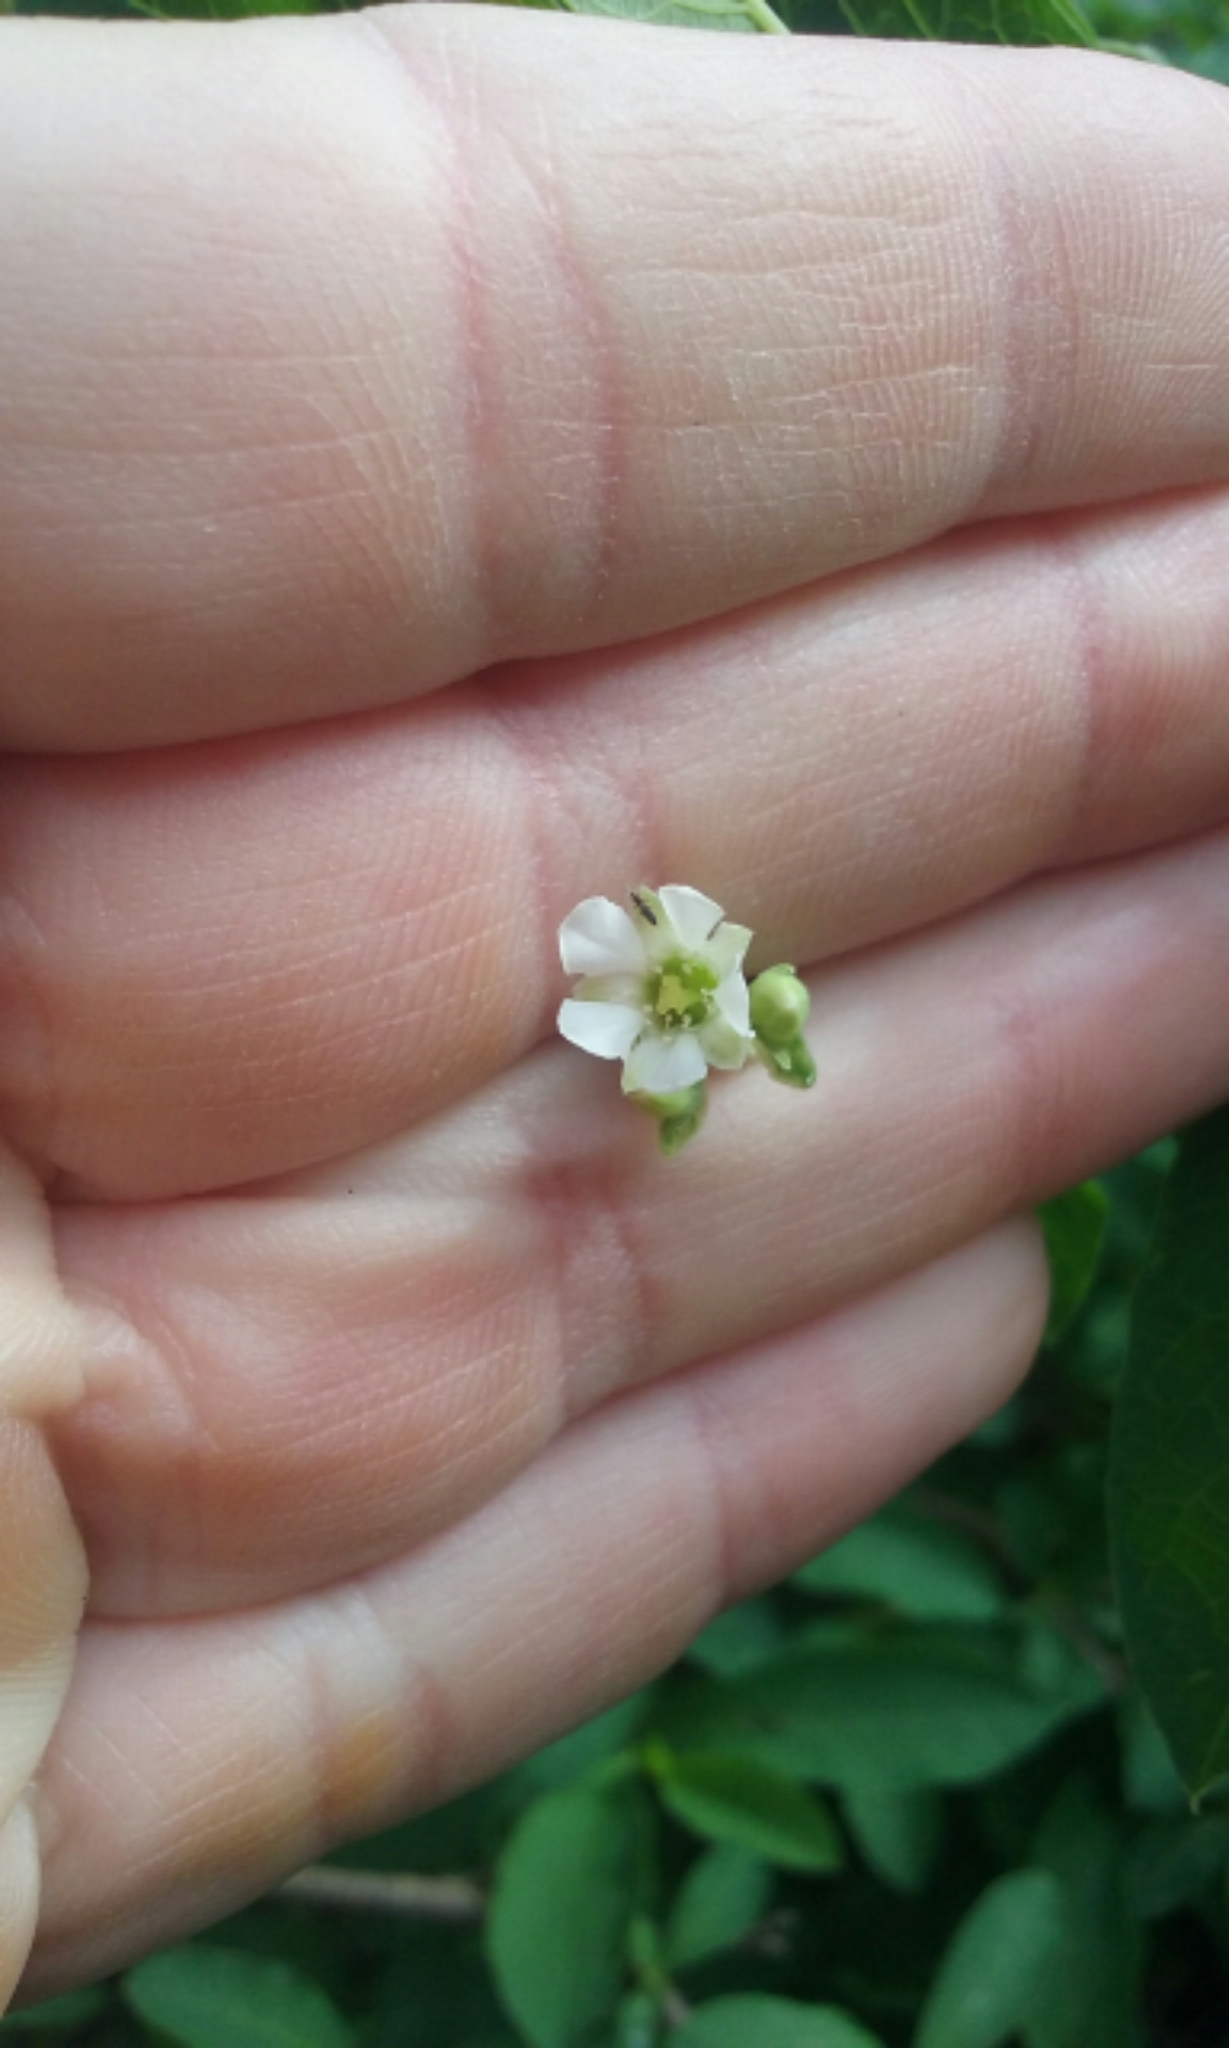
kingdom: Plantae
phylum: Tracheophyta
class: Magnoliopsida
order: Rosales
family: Rosaceae
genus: Oemleria
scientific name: Oemleria cerasiformis
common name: Osoberry
